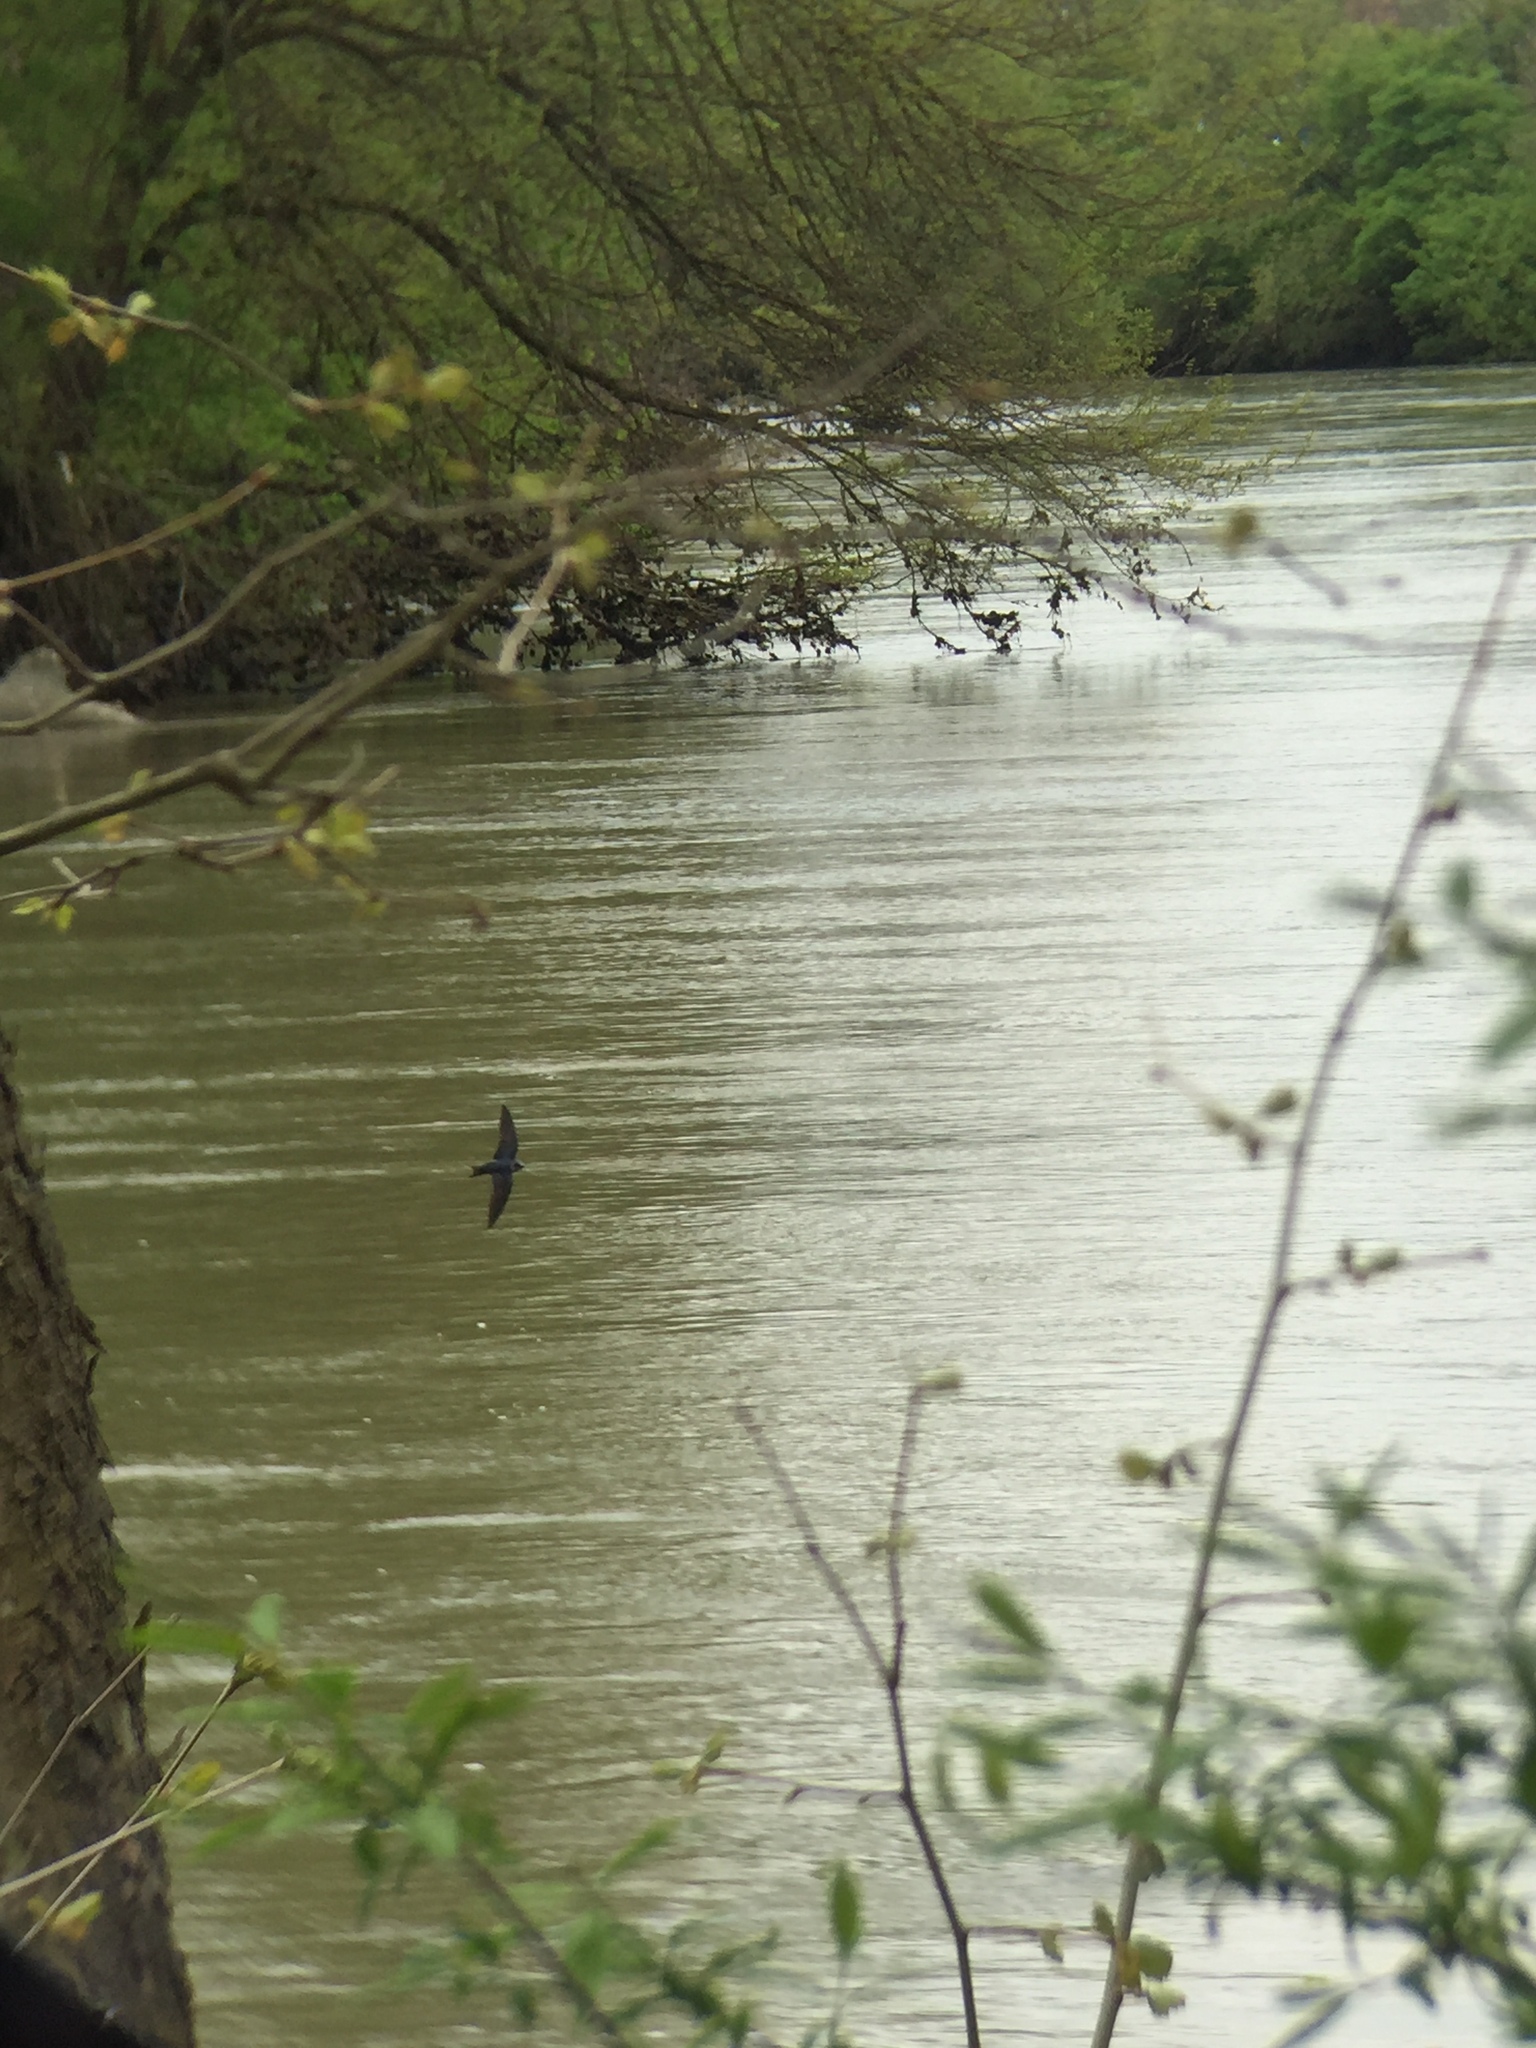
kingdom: Animalia
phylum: Chordata
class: Aves
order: Passeriformes
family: Hirundinidae
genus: Progne
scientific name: Progne subis
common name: Purple martin
